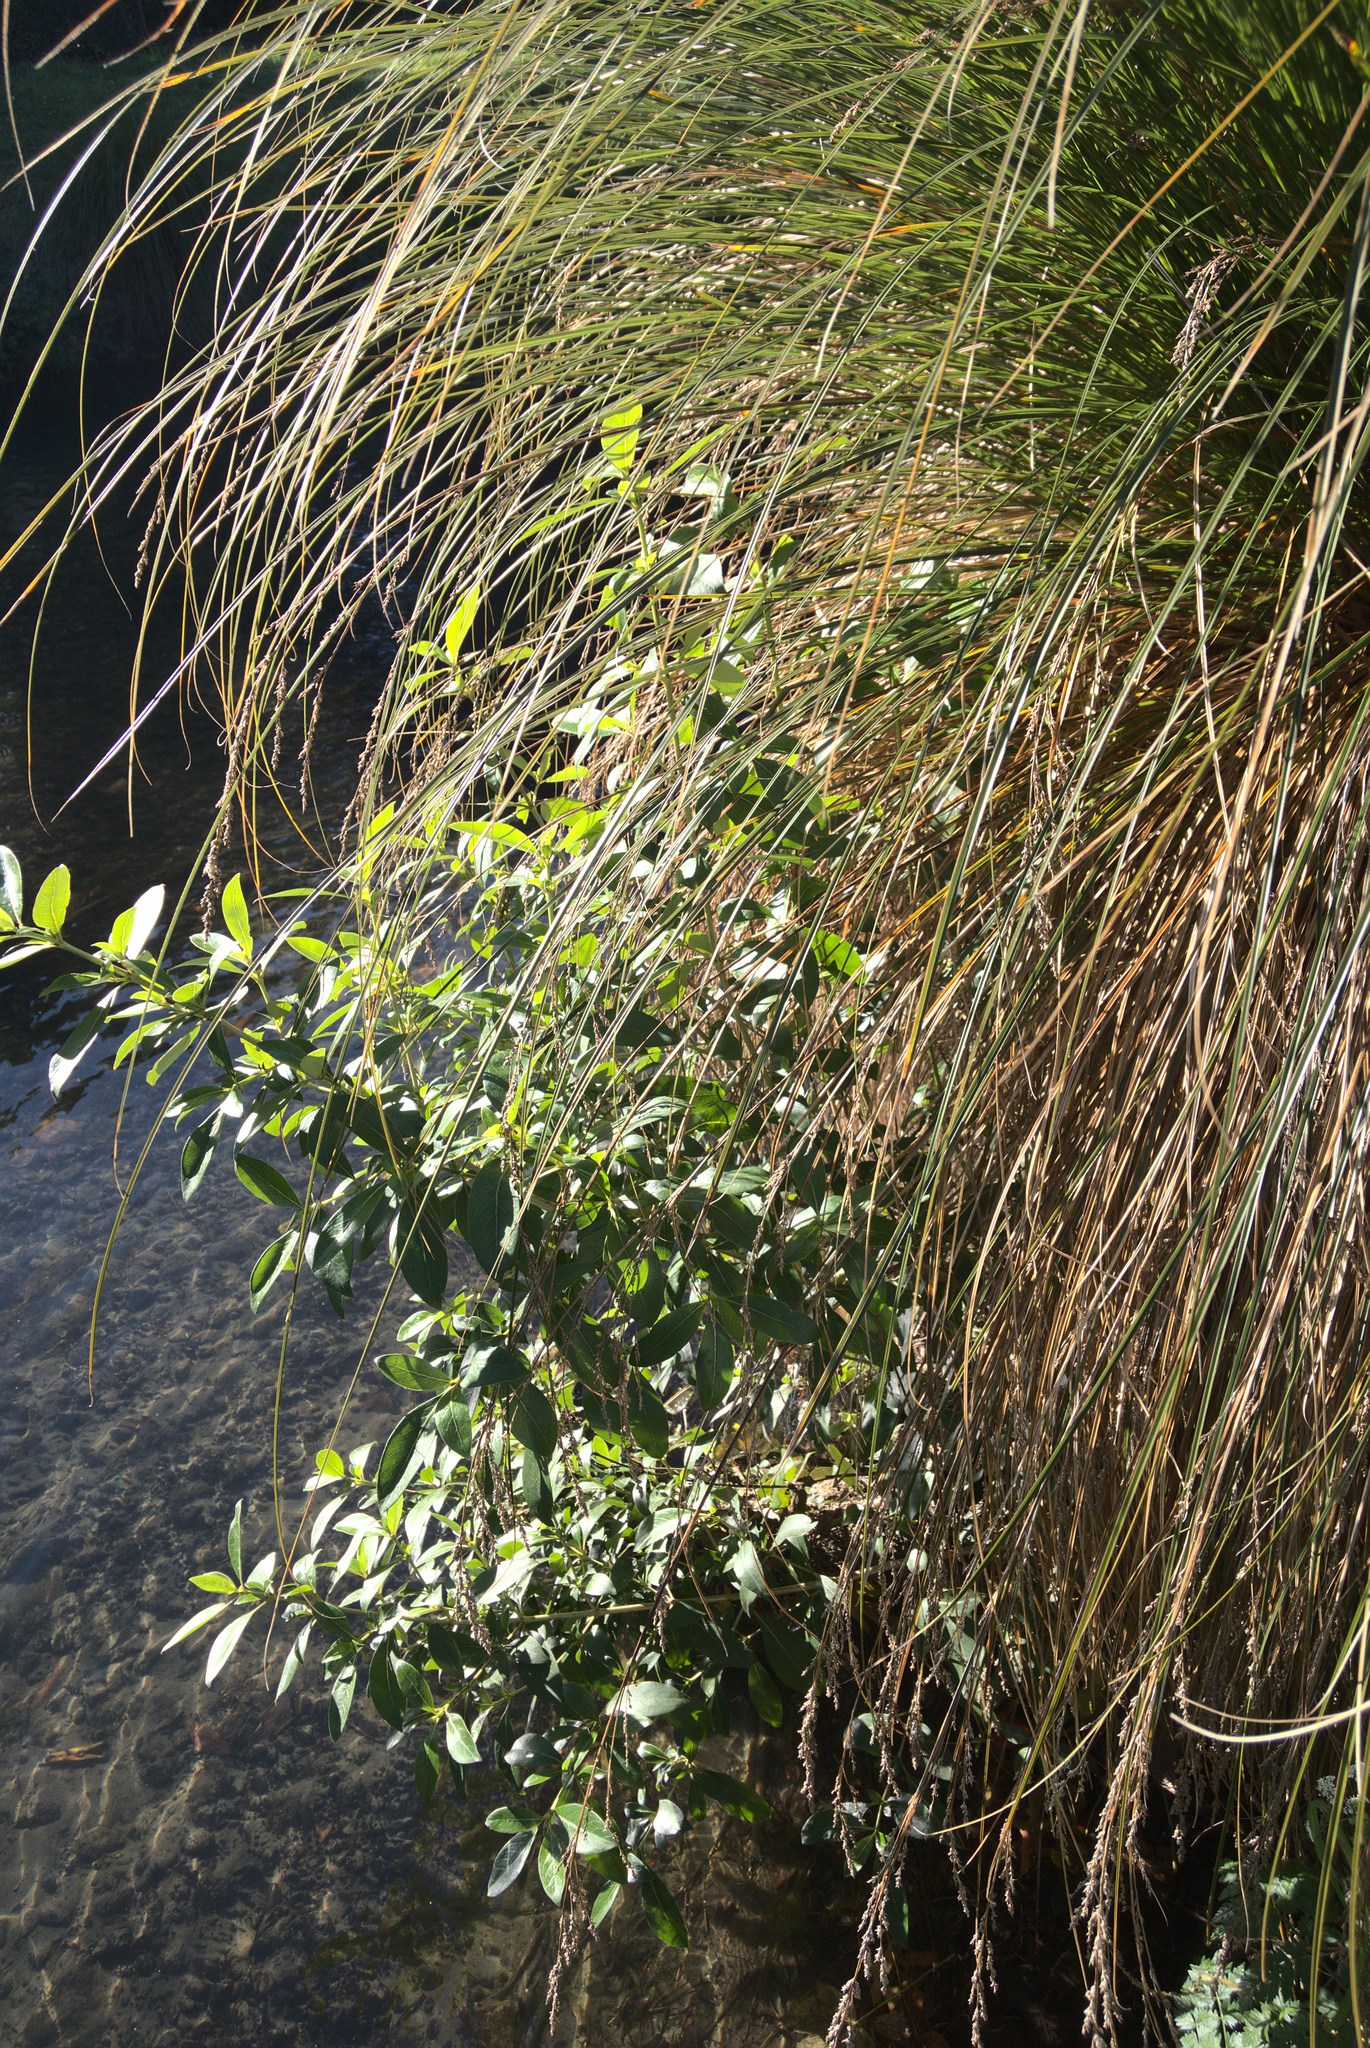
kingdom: Plantae
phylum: Tracheophyta
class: Magnoliopsida
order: Gentianales
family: Rubiaceae
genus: Coprosma
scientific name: Coprosma robusta
